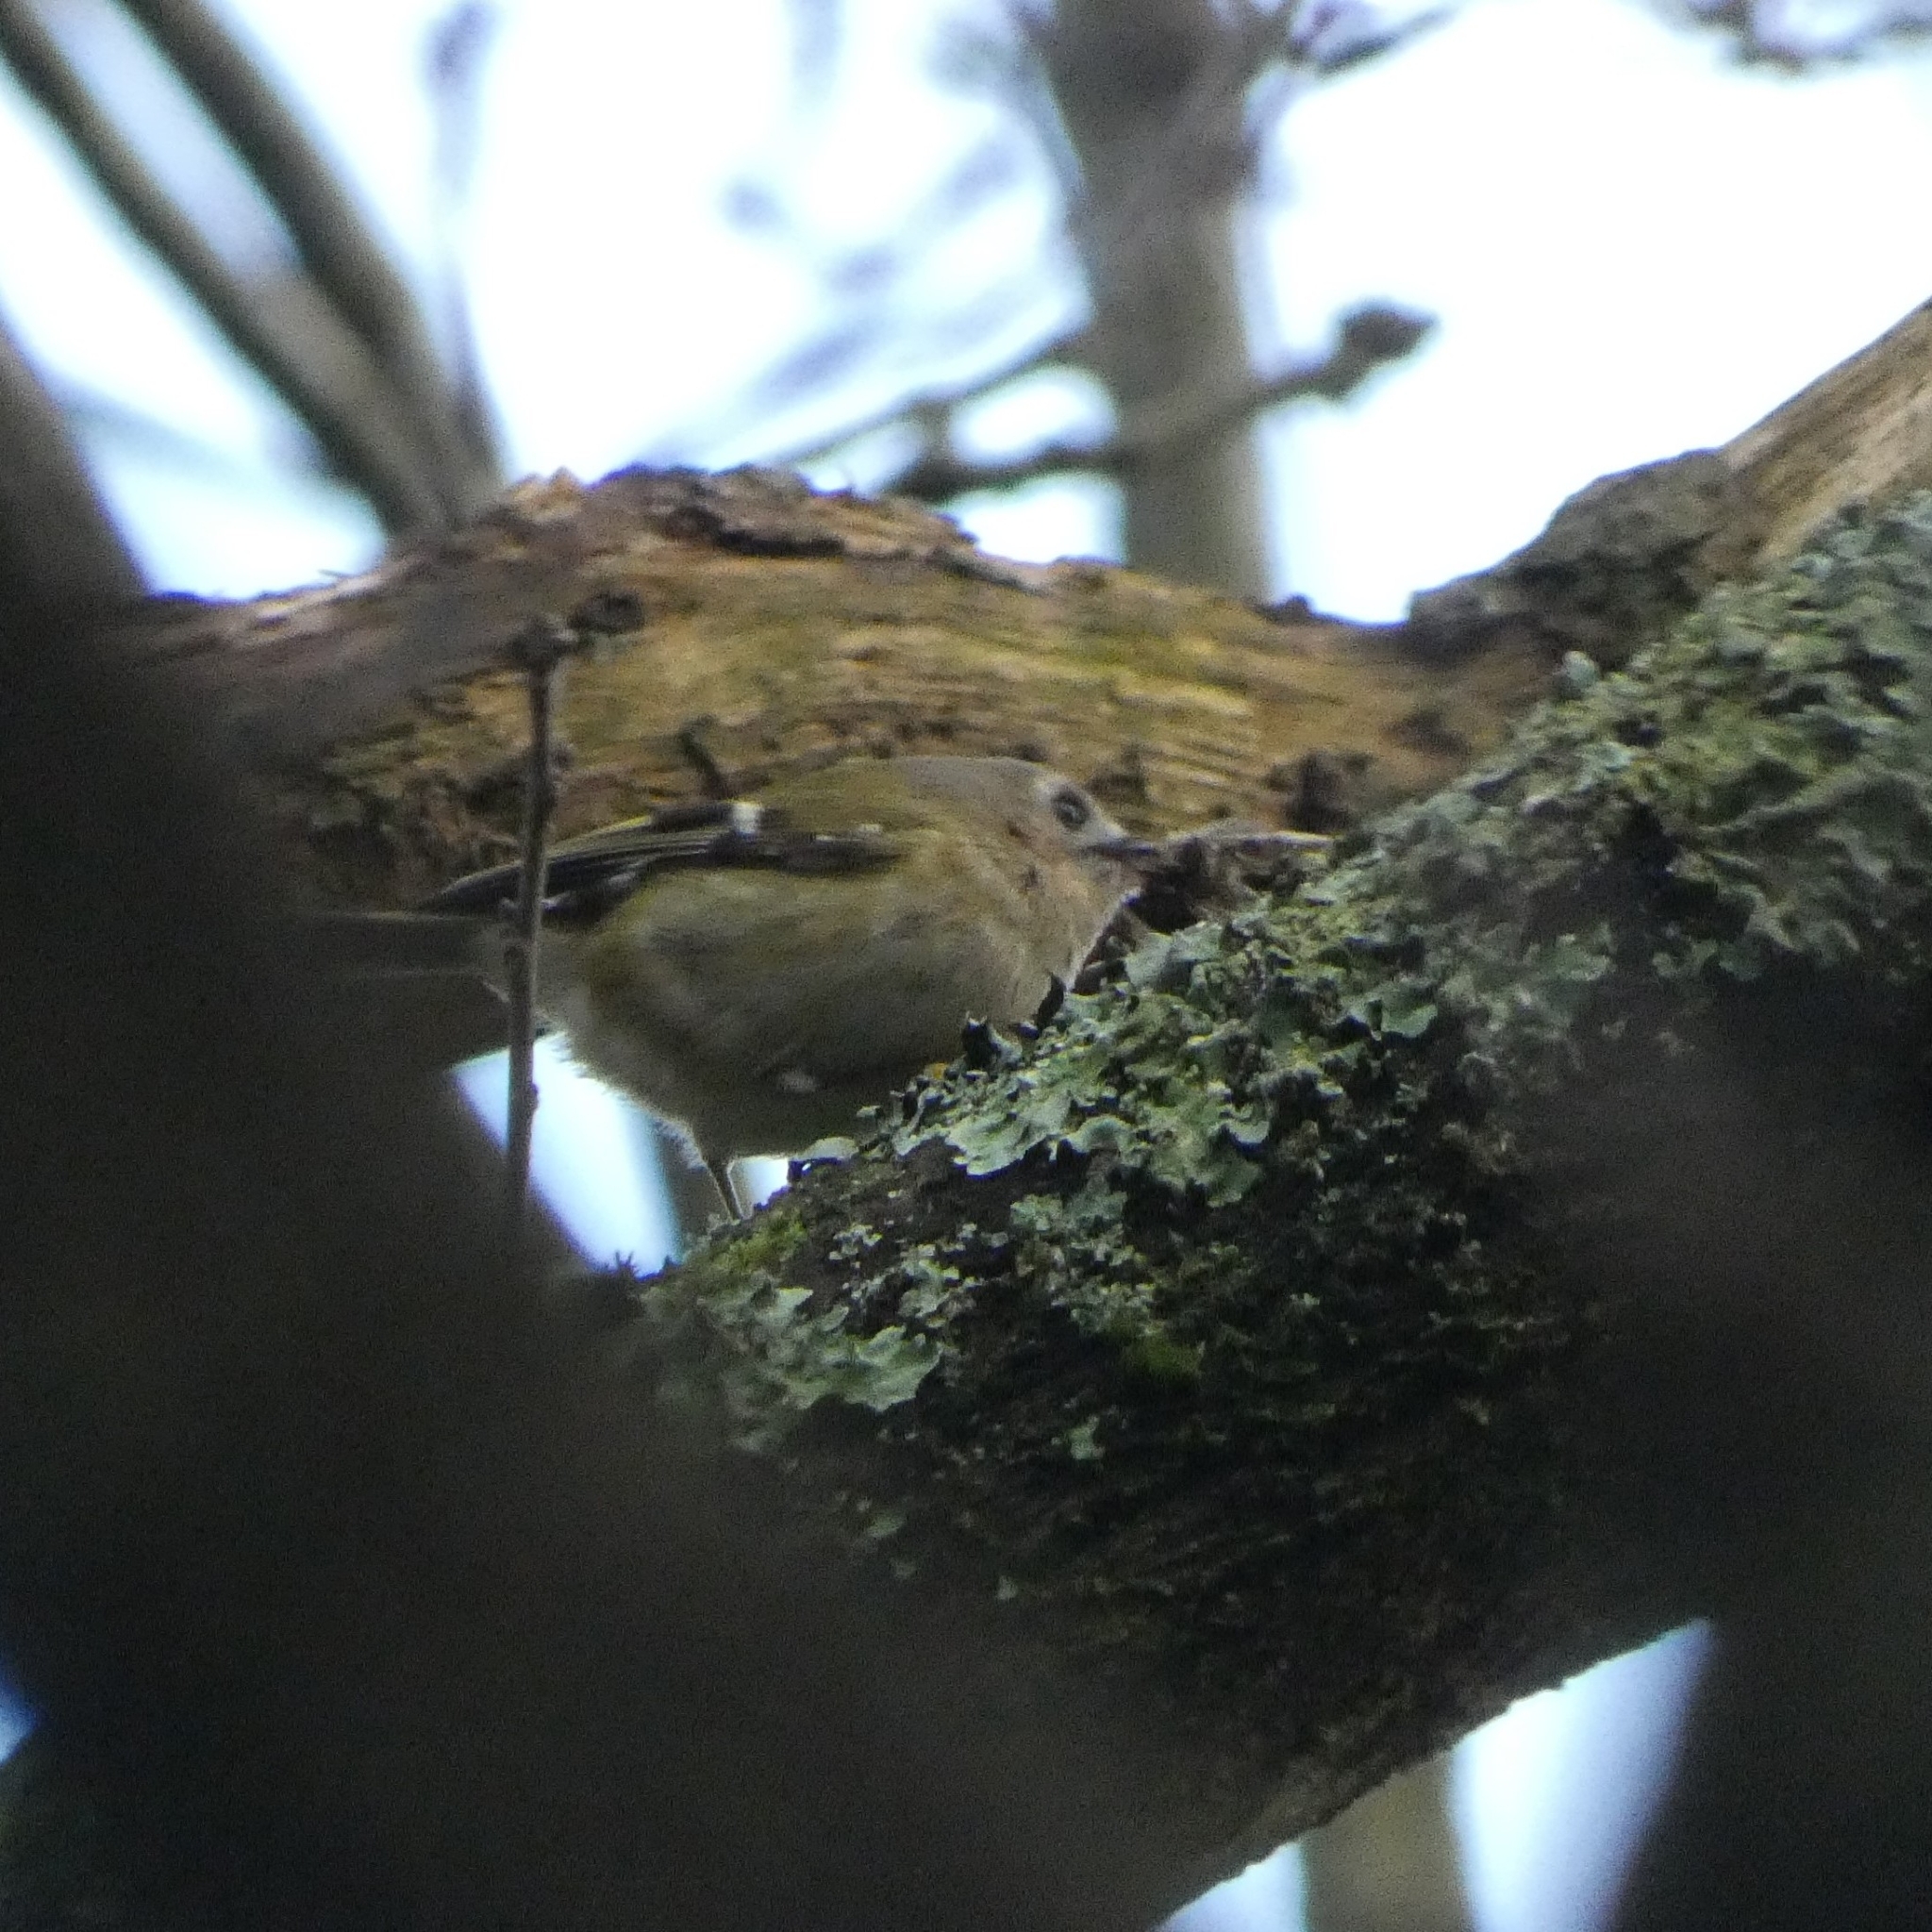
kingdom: Animalia
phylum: Chordata
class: Aves
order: Passeriformes
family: Regulidae
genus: Regulus
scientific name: Regulus regulus
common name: Goldcrest
